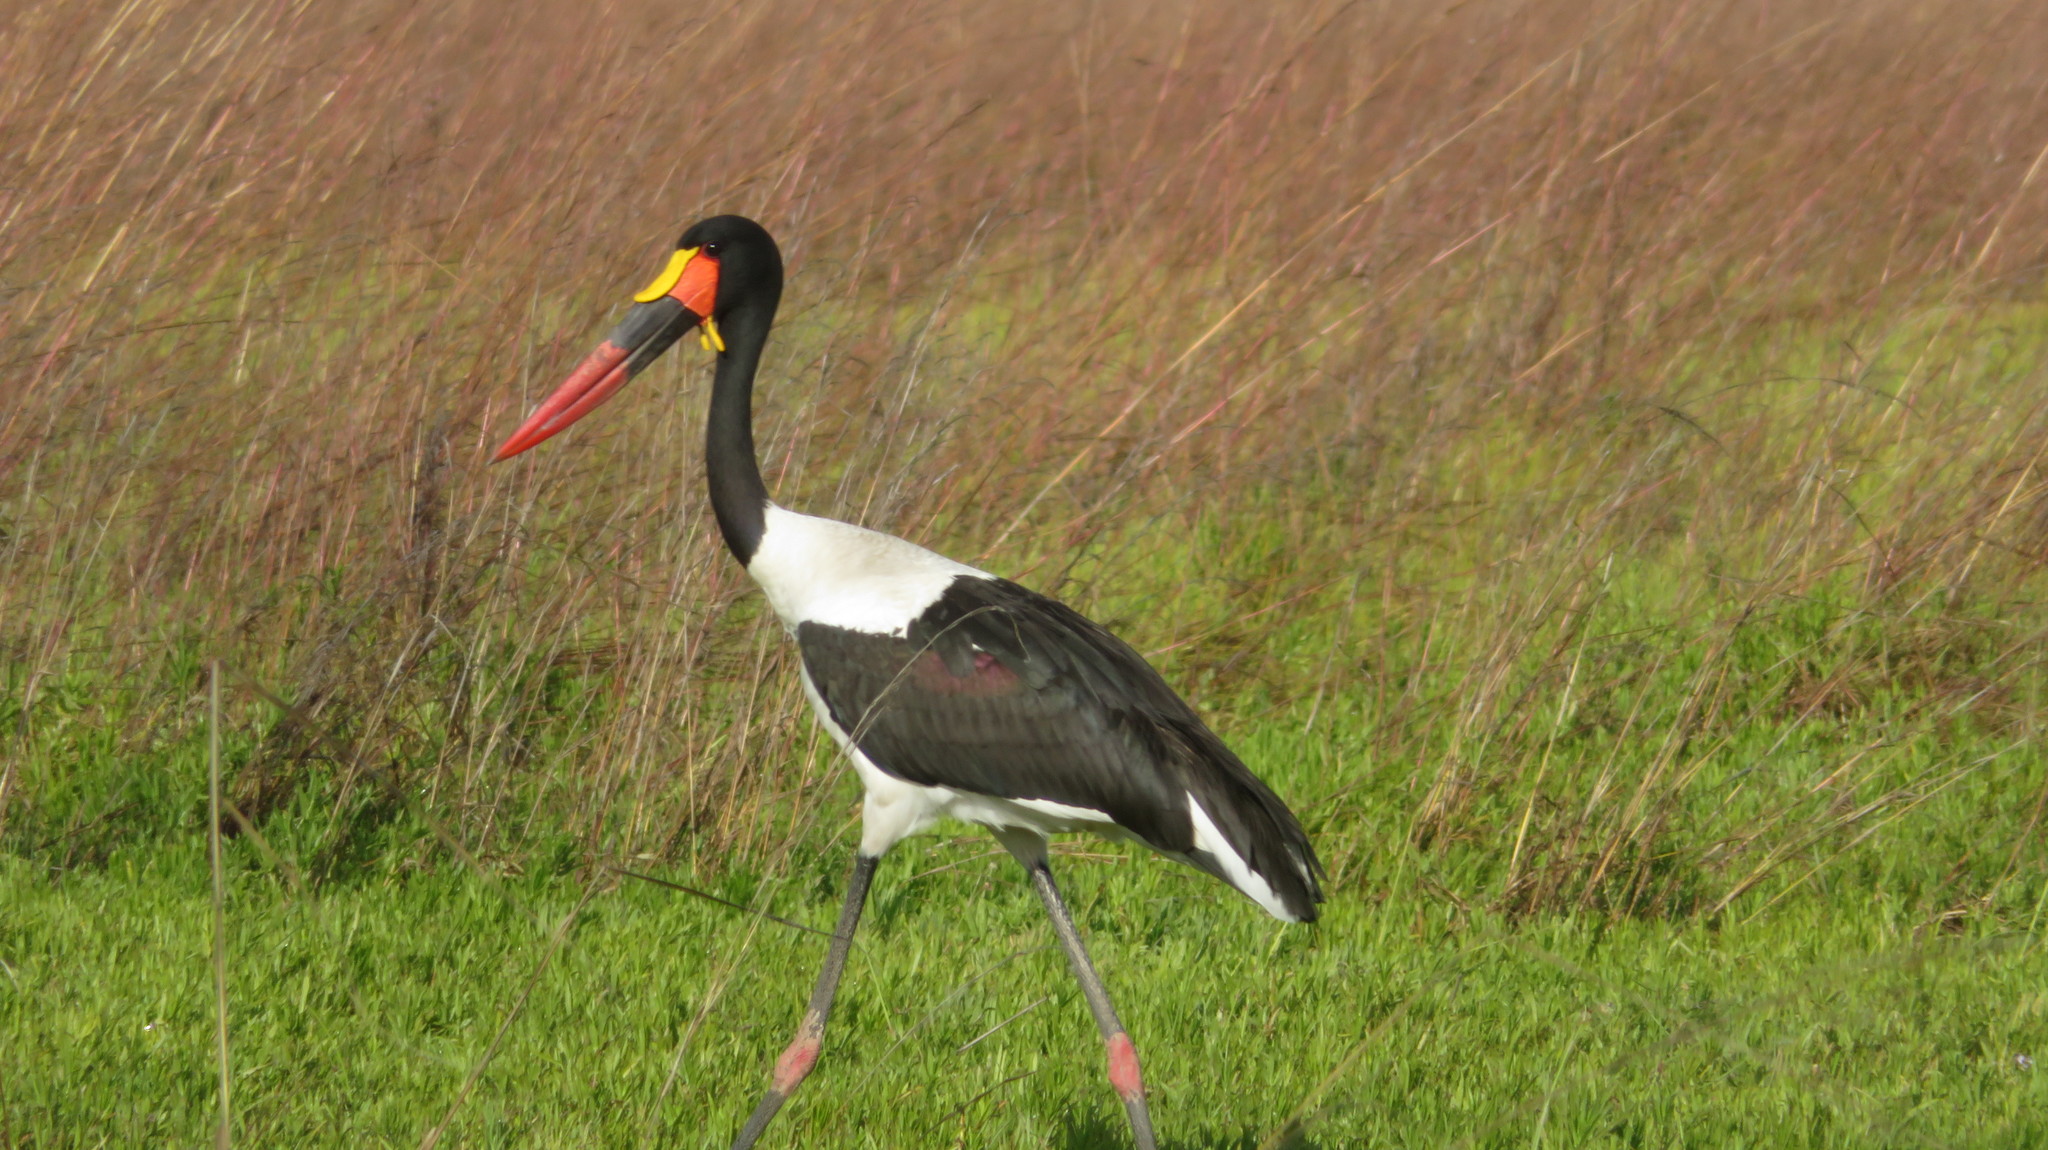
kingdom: Animalia
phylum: Chordata
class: Aves
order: Ciconiiformes
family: Ciconiidae
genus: Ephippiorhynchus
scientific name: Ephippiorhynchus senegalensis
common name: Saddle-billed stork
